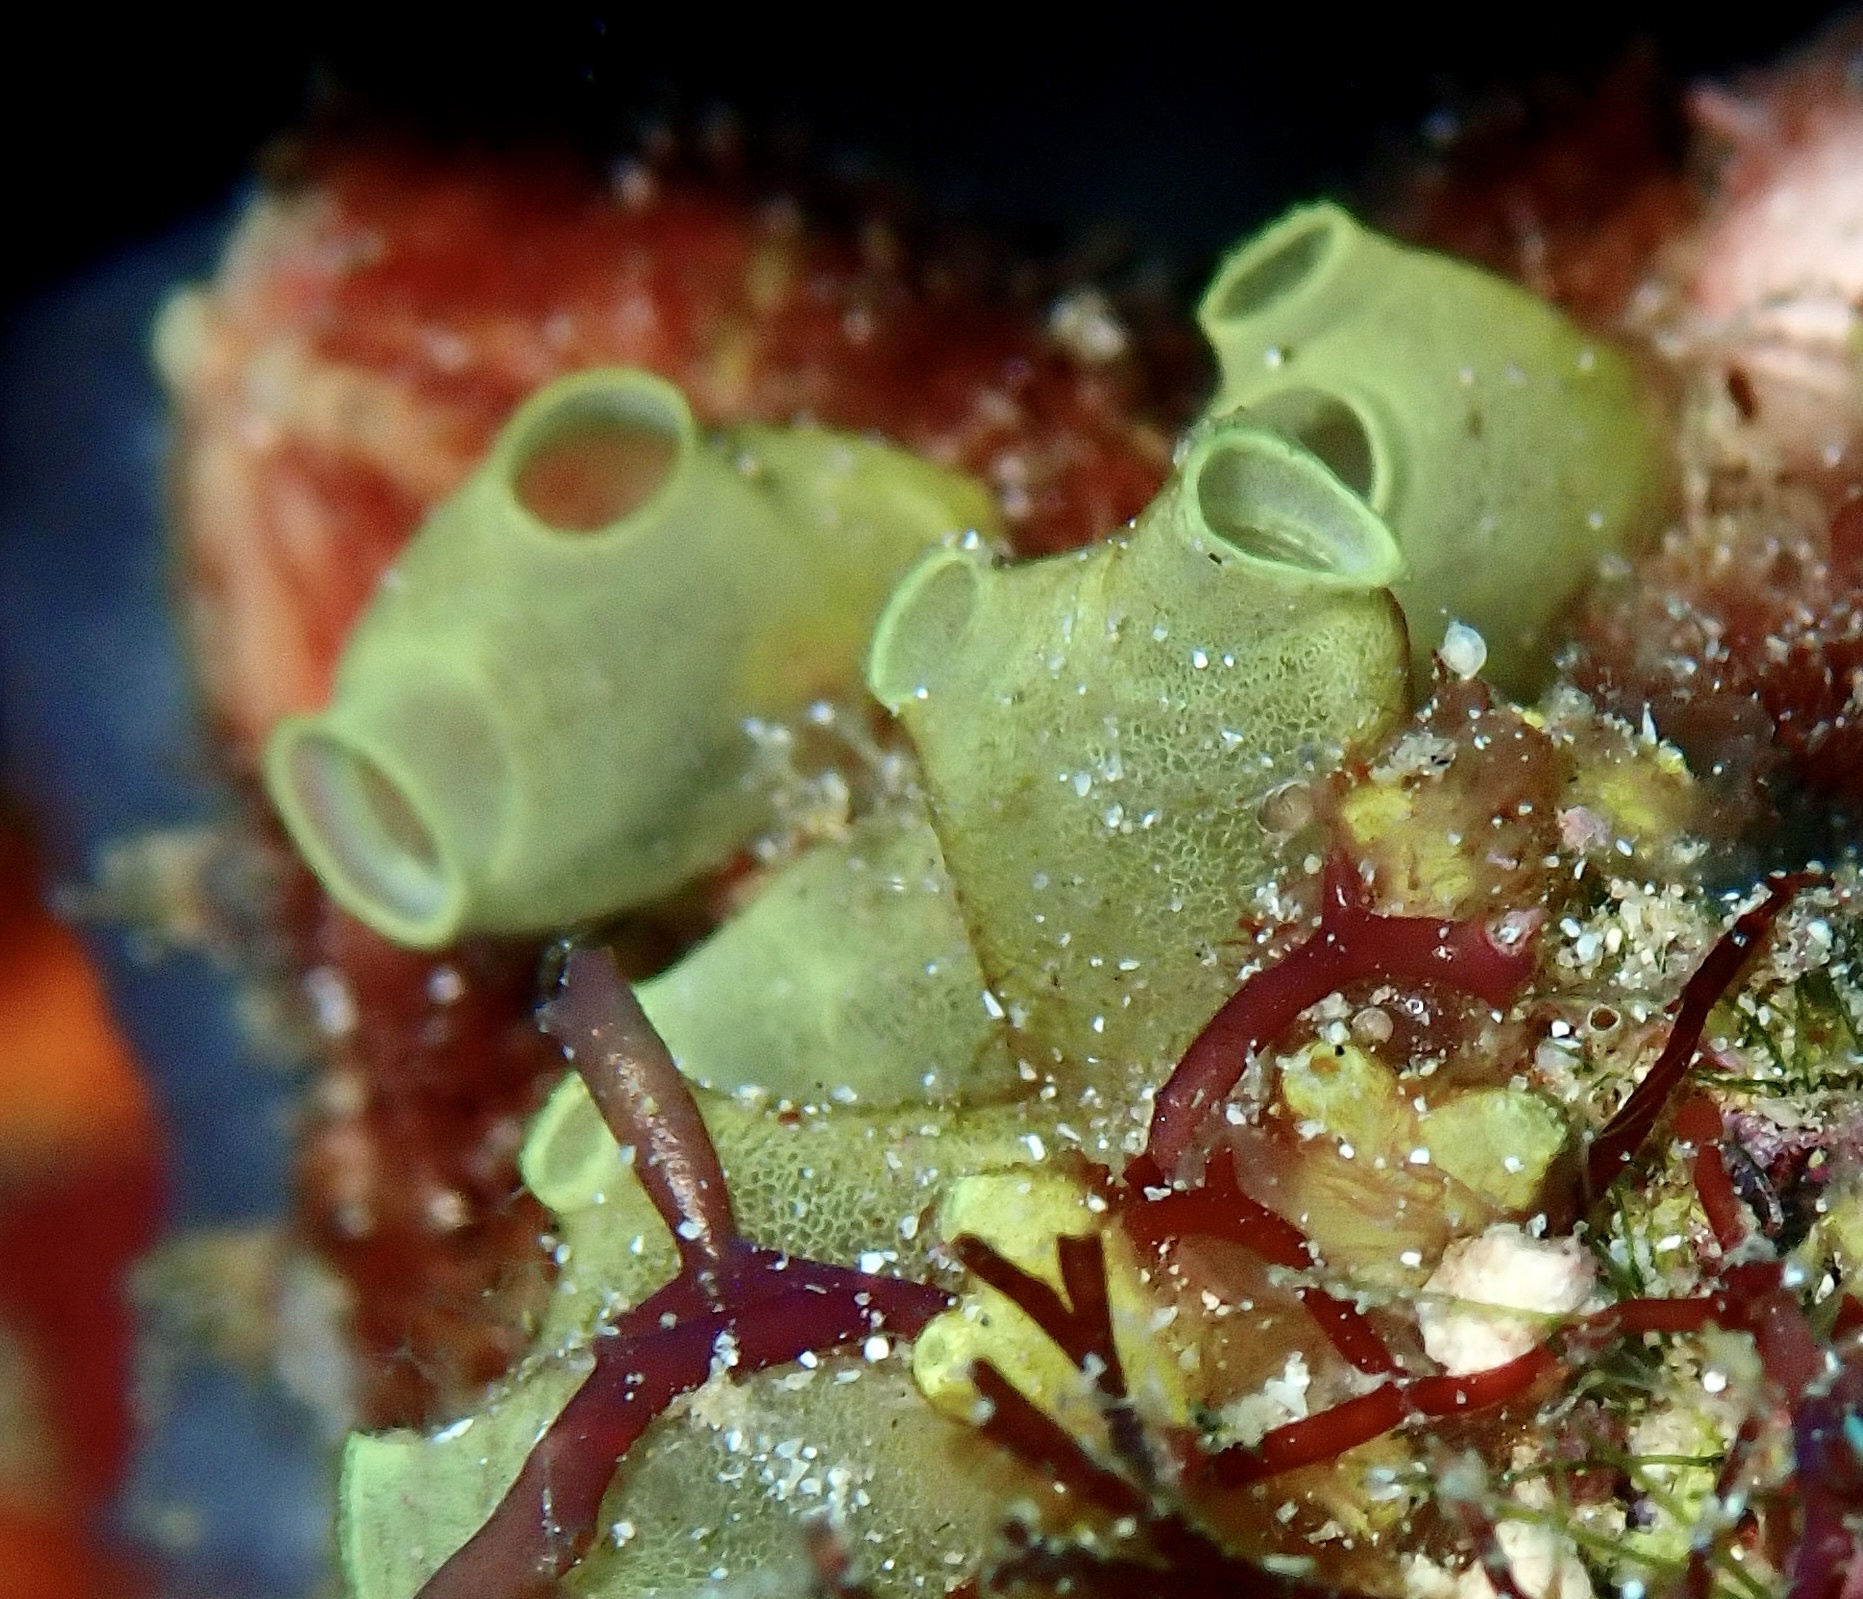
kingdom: Animalia
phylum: Chordata
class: Ascidiacea
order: Phlebobranchia
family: Perophoridae
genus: Ecteinascidia
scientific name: Ecteinascidia nexa
